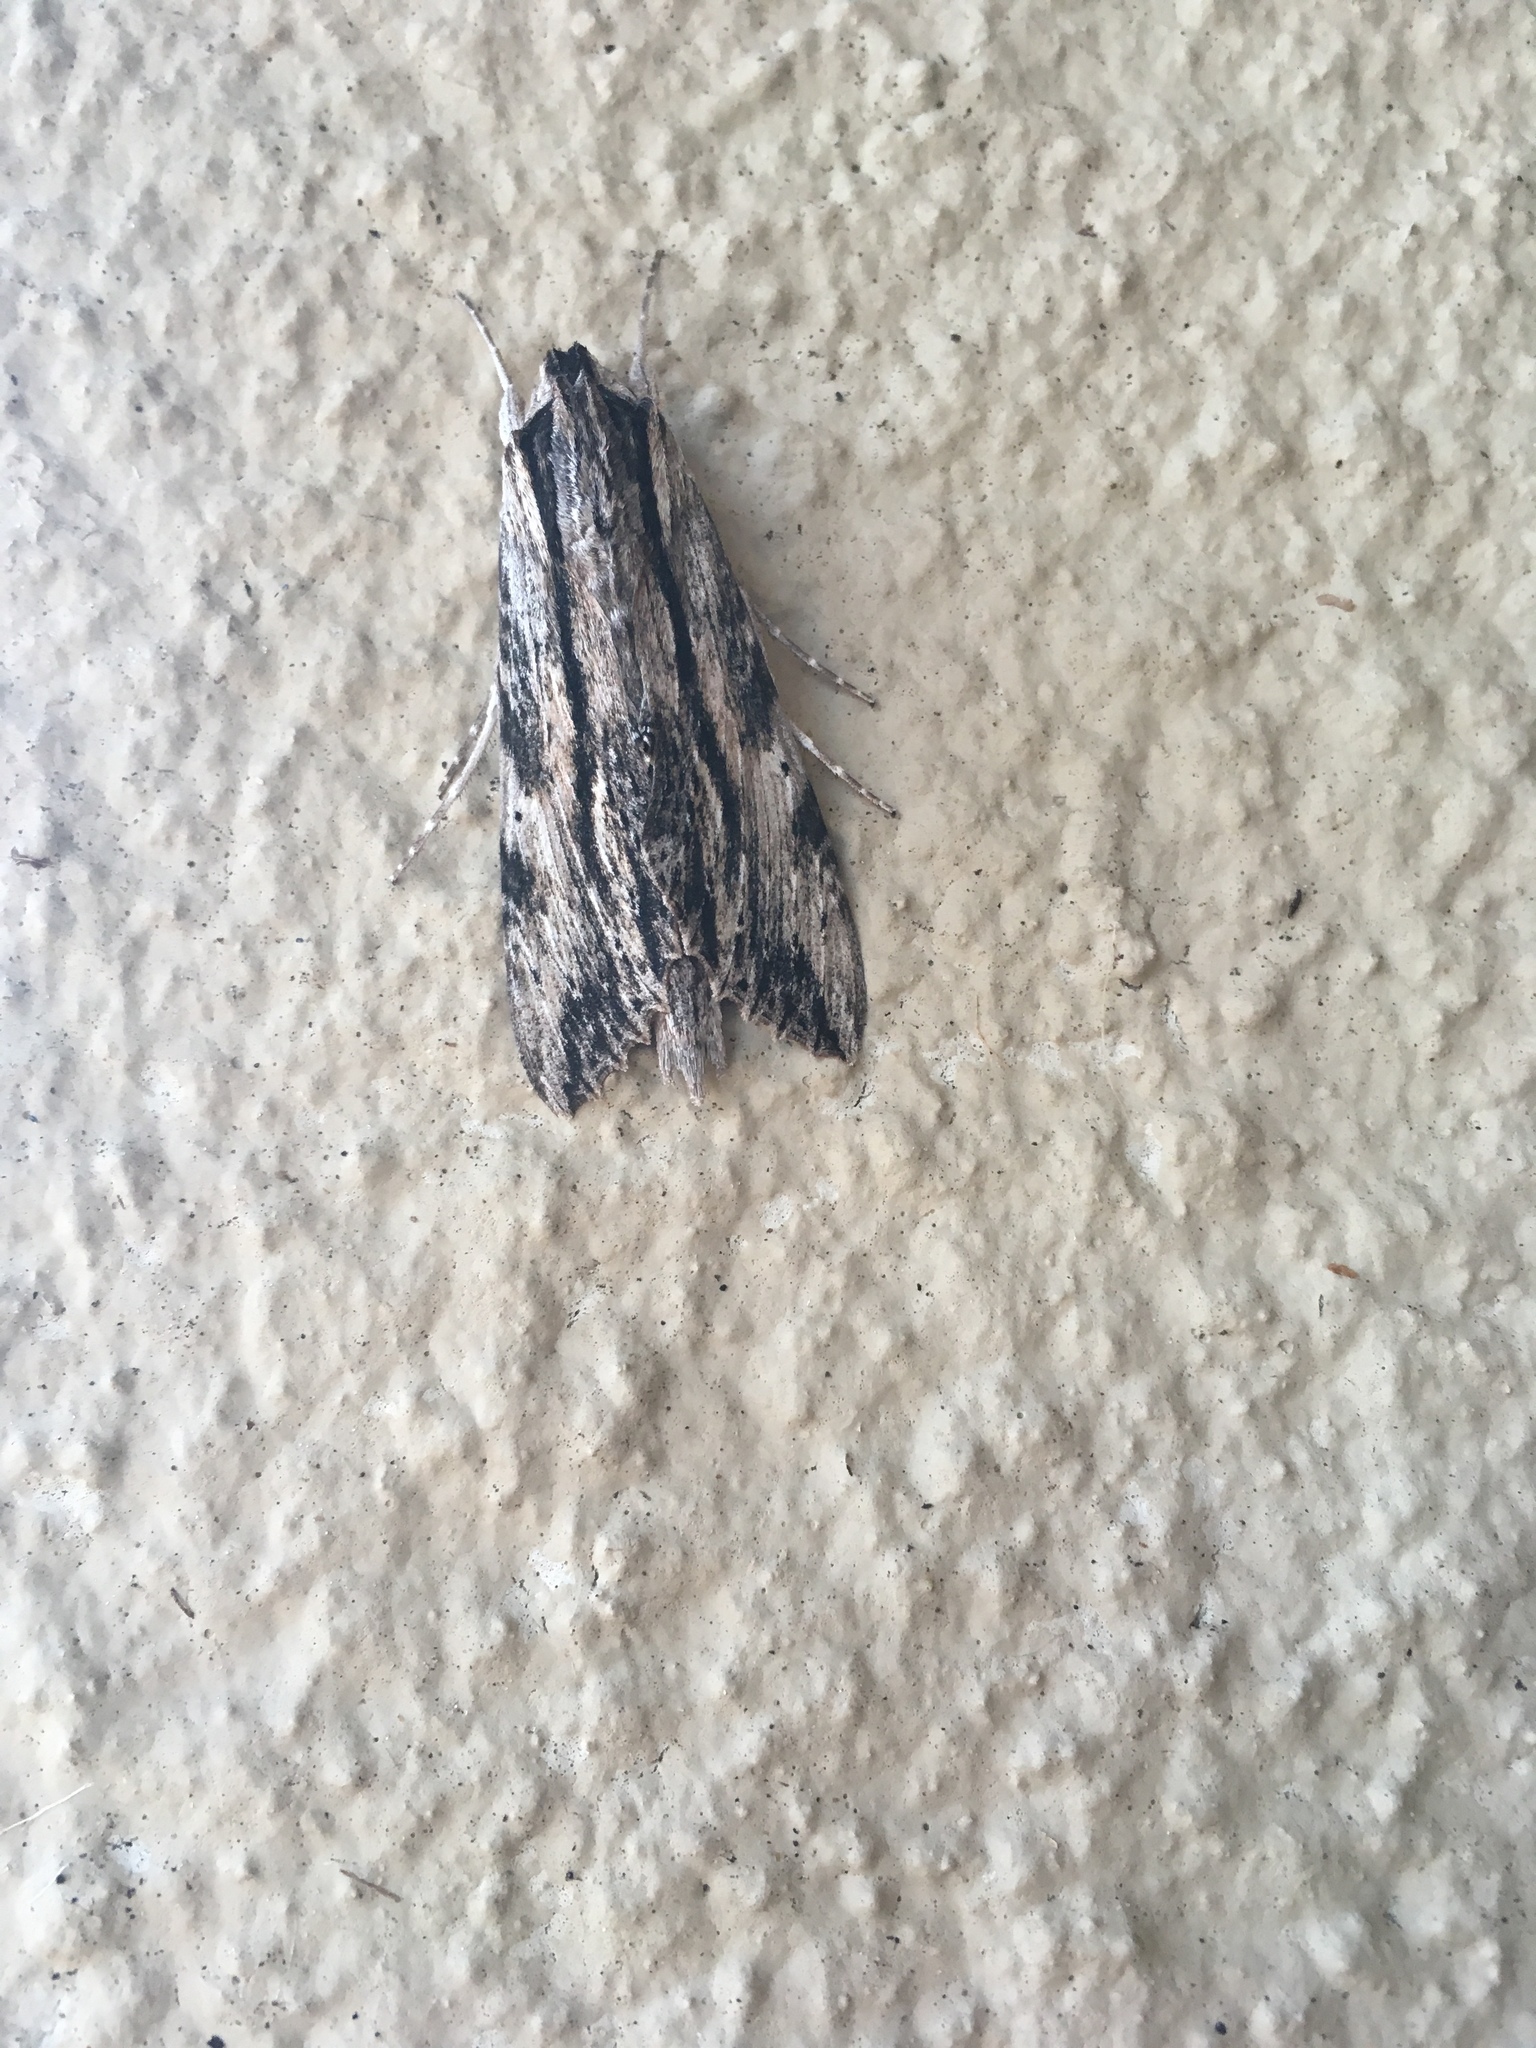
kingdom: Animalia
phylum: Arthropoda
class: Insecta
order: Lepidoptera
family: Sphingidae
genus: Erinnyis
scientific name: Erinnyis obscura
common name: Obscure sphinx
